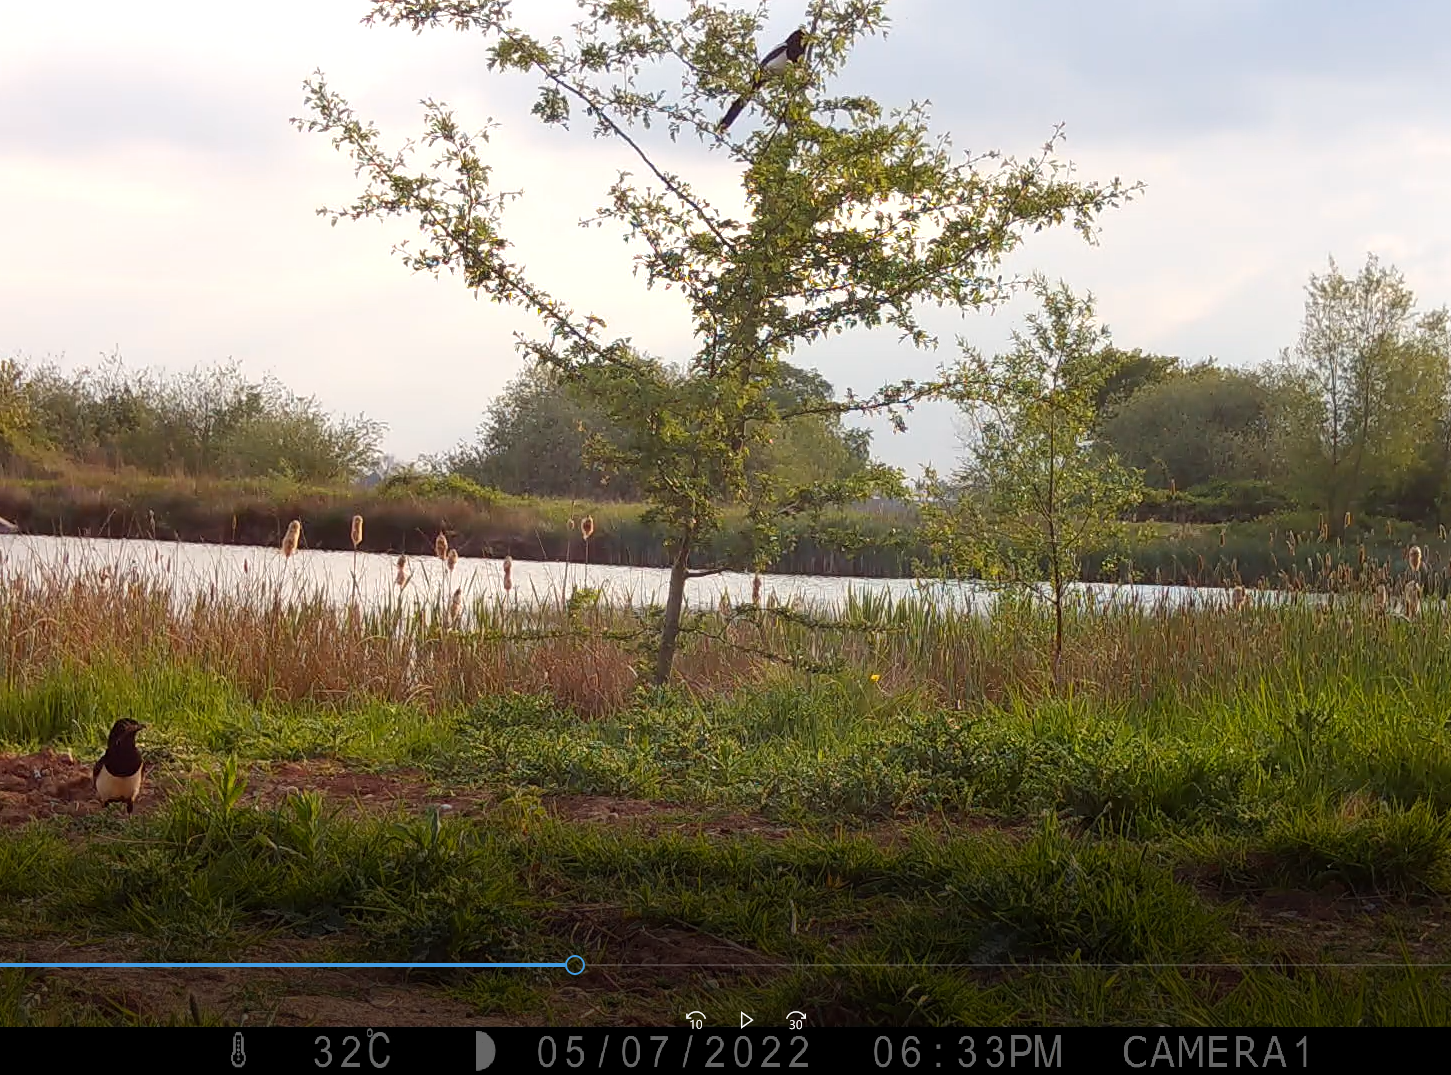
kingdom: Animalia
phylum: Chordata
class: Aves
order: Passeriformes
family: Corvidae
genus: Pica
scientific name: Pica pica
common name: Eurasian magpie
